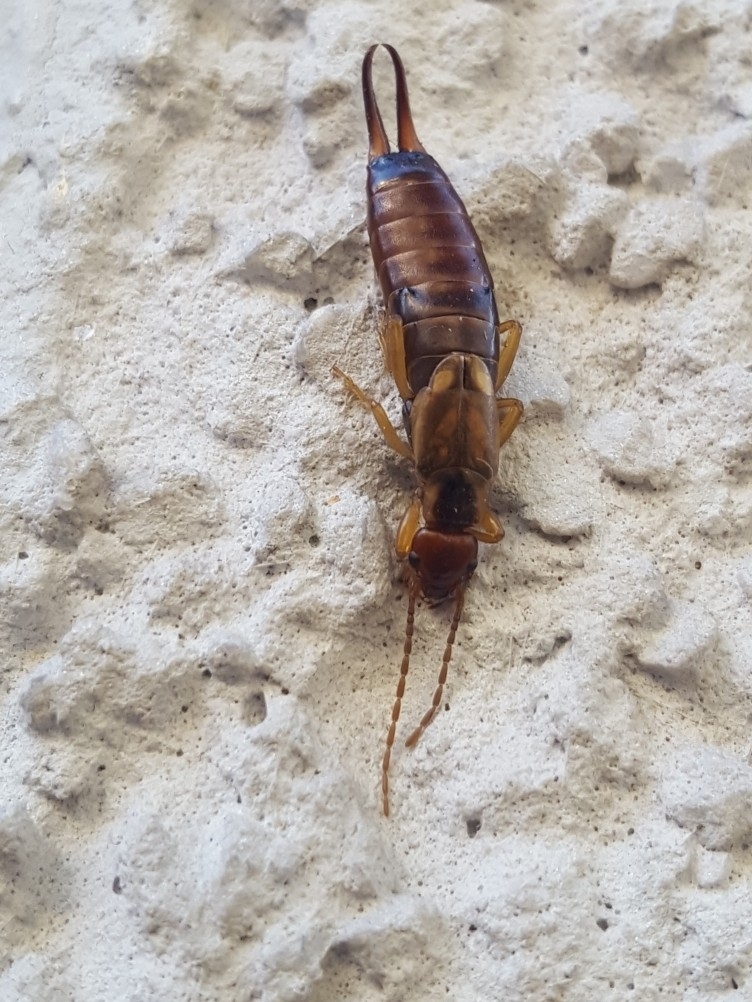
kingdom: Animalia
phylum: Arthropoda
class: Insecta
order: Dermaptera
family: Forficulidae
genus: Forficula
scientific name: Forficula
